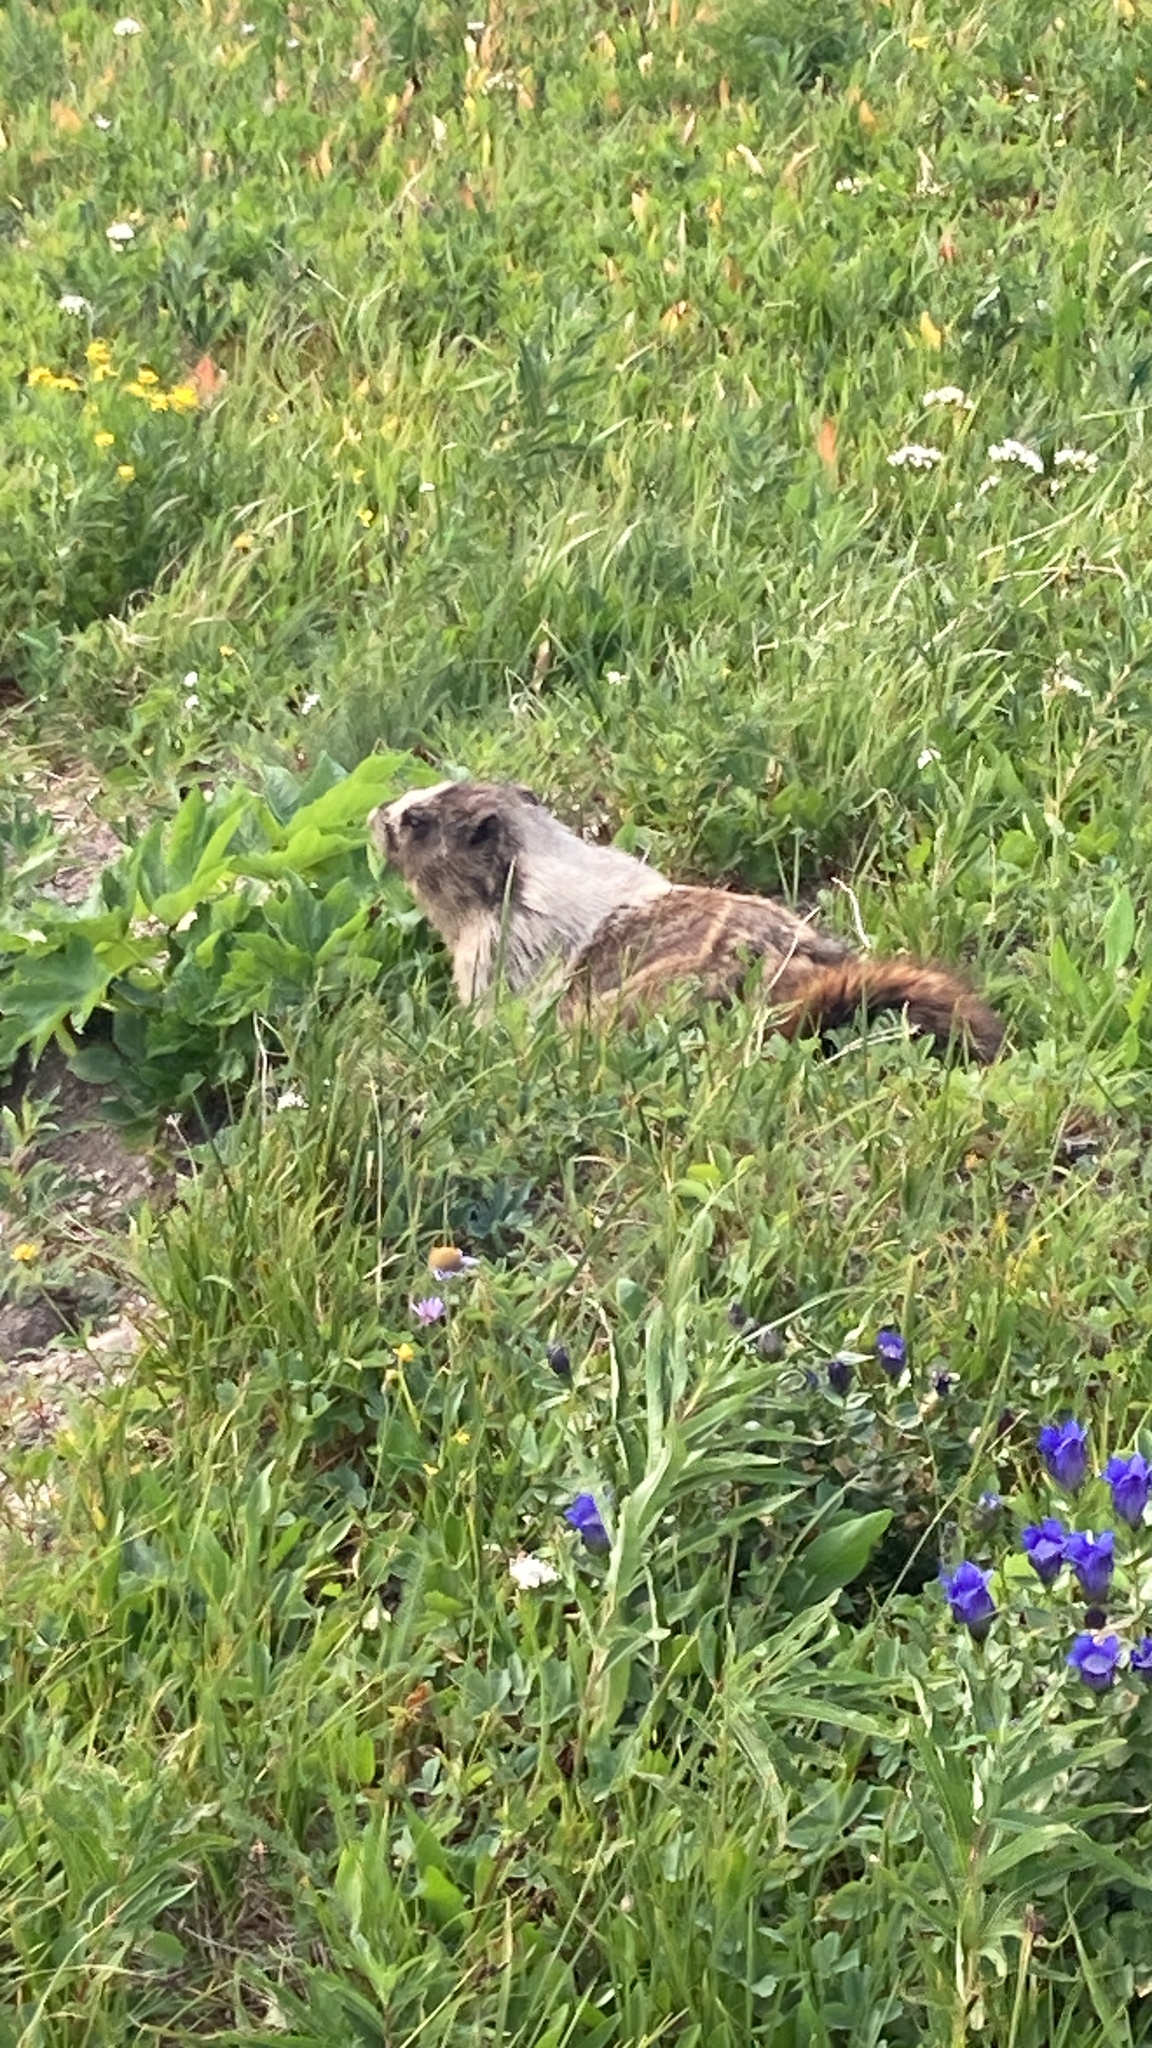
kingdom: Animalia
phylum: Chordata
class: Mammalia
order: Rodentia
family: Sciuridae
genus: Marmota
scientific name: Marmota caligata
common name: Hoary marmot
